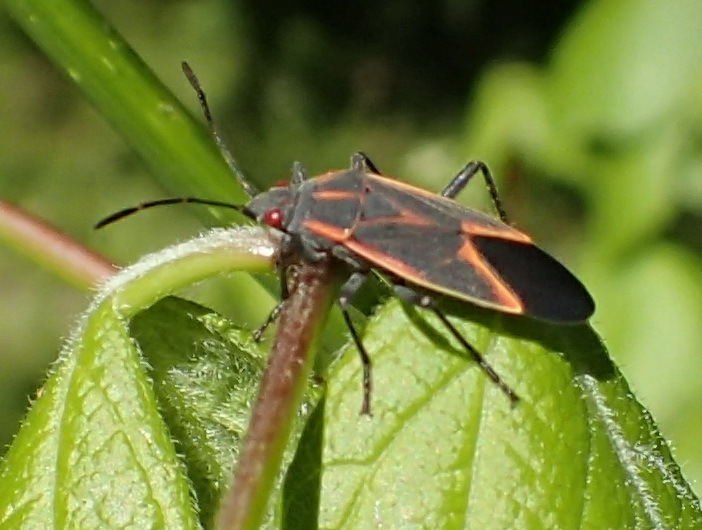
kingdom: Animalia
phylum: Arthropoda
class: Insecta
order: Hemiptera
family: Rhopalidae
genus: Boisea
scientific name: Boisea trivittata
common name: Boxelder bug
